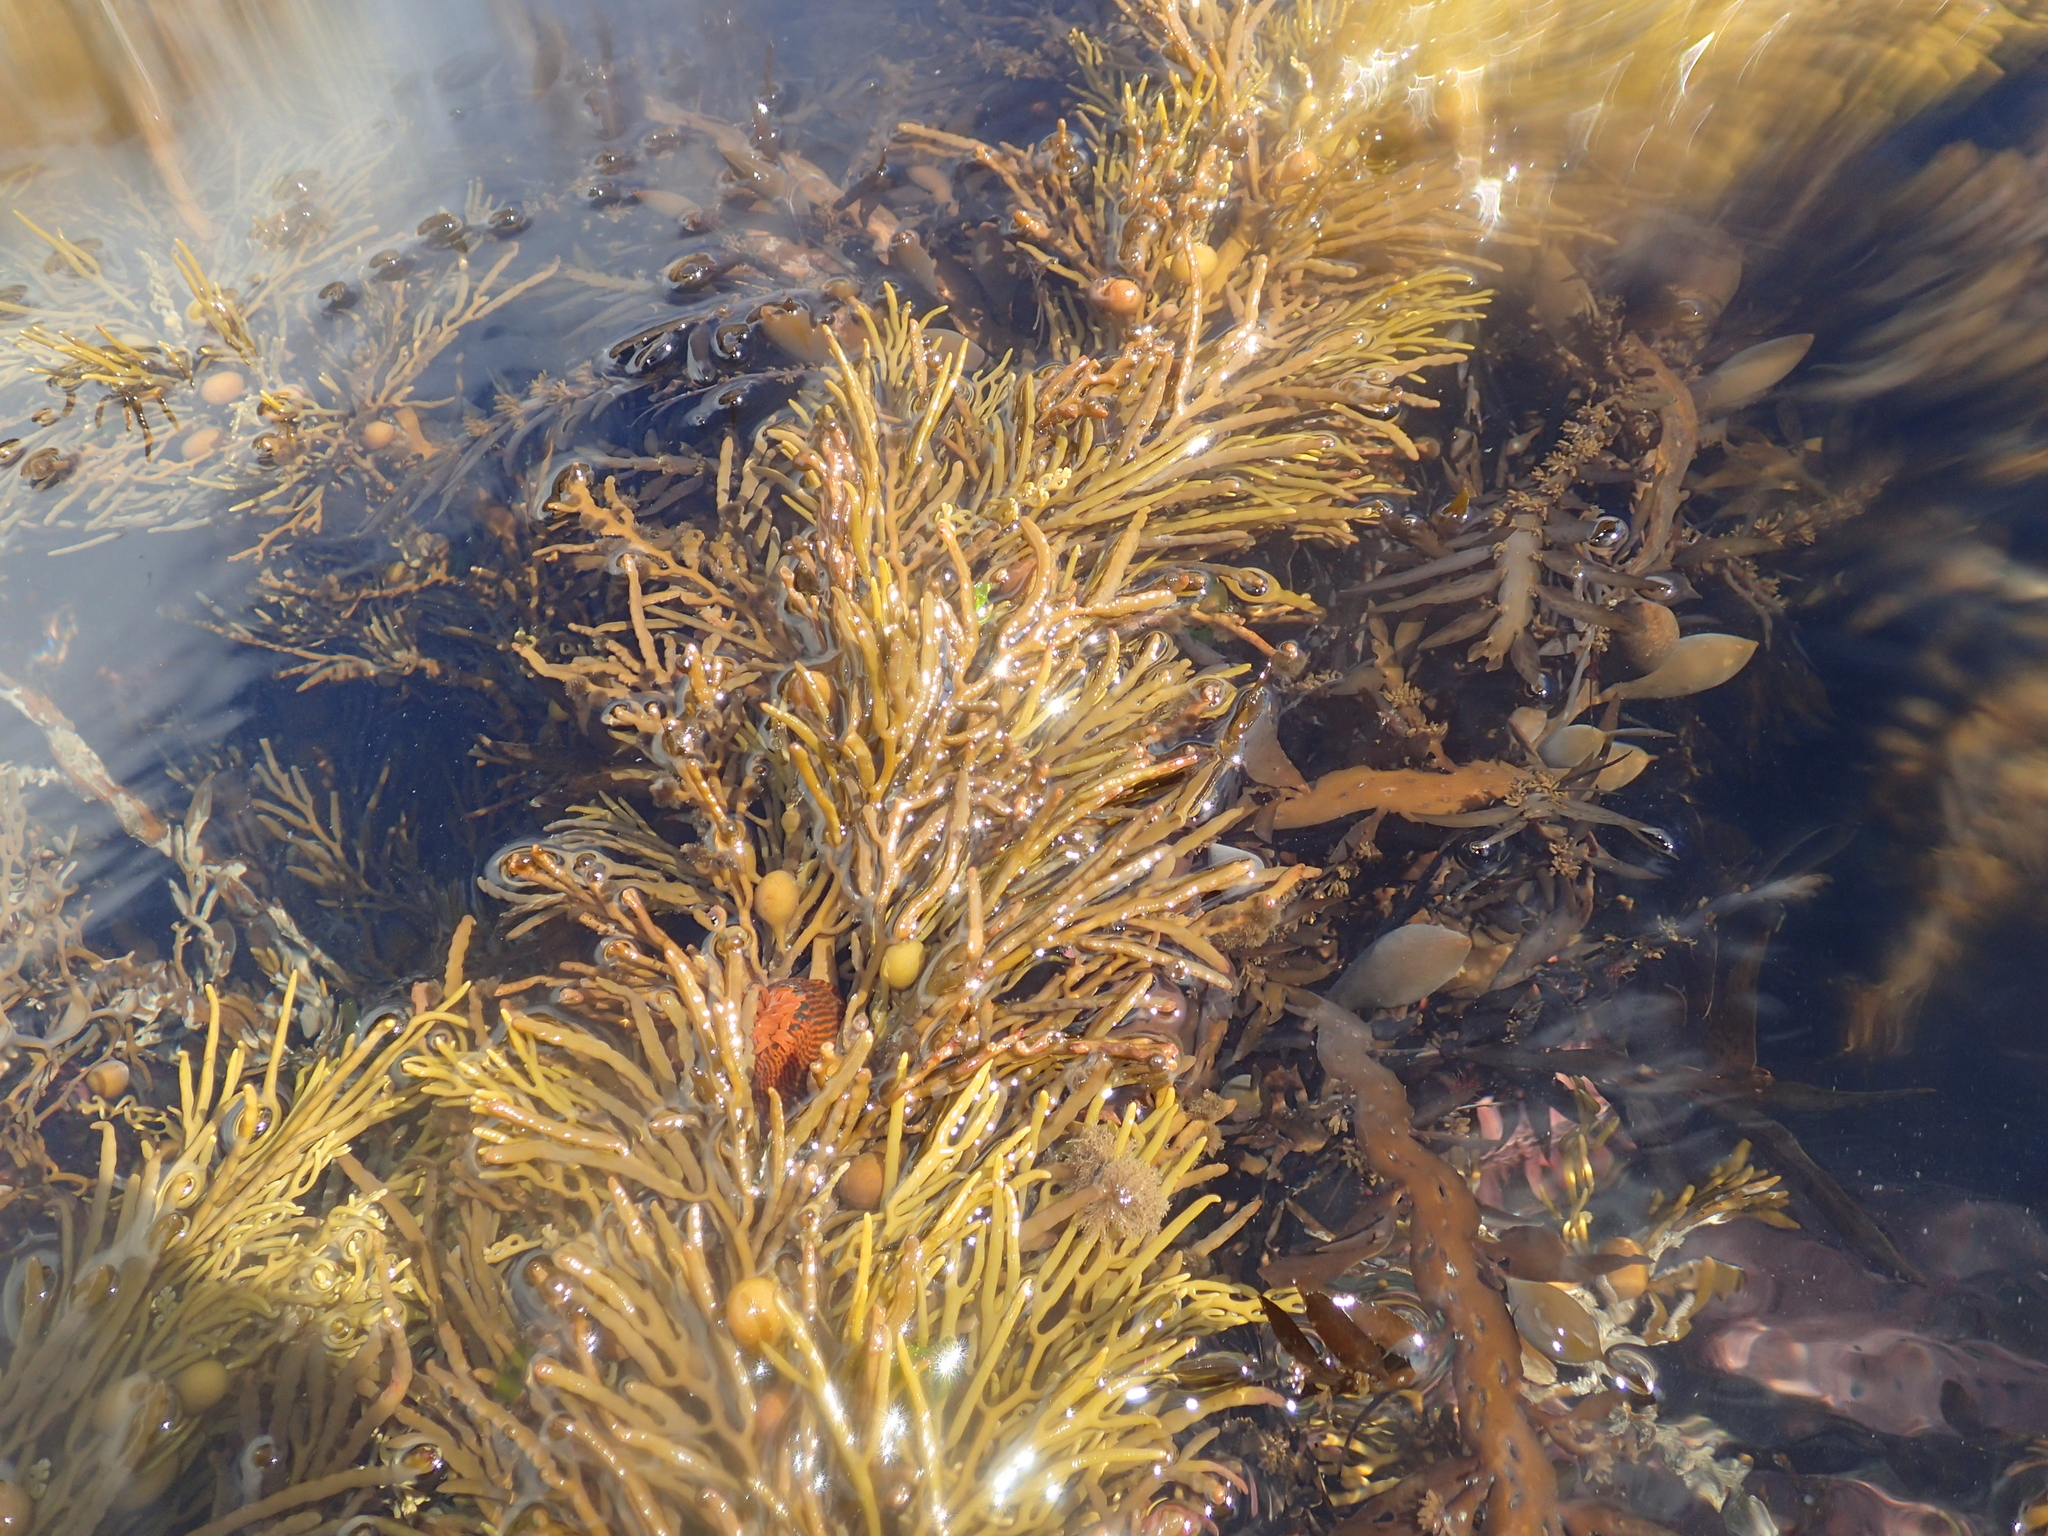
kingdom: Animalia
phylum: Cnidaria
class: Anthozoa
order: Actiniaria
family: Actiniidae
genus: Epiactis
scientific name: Epiactis
